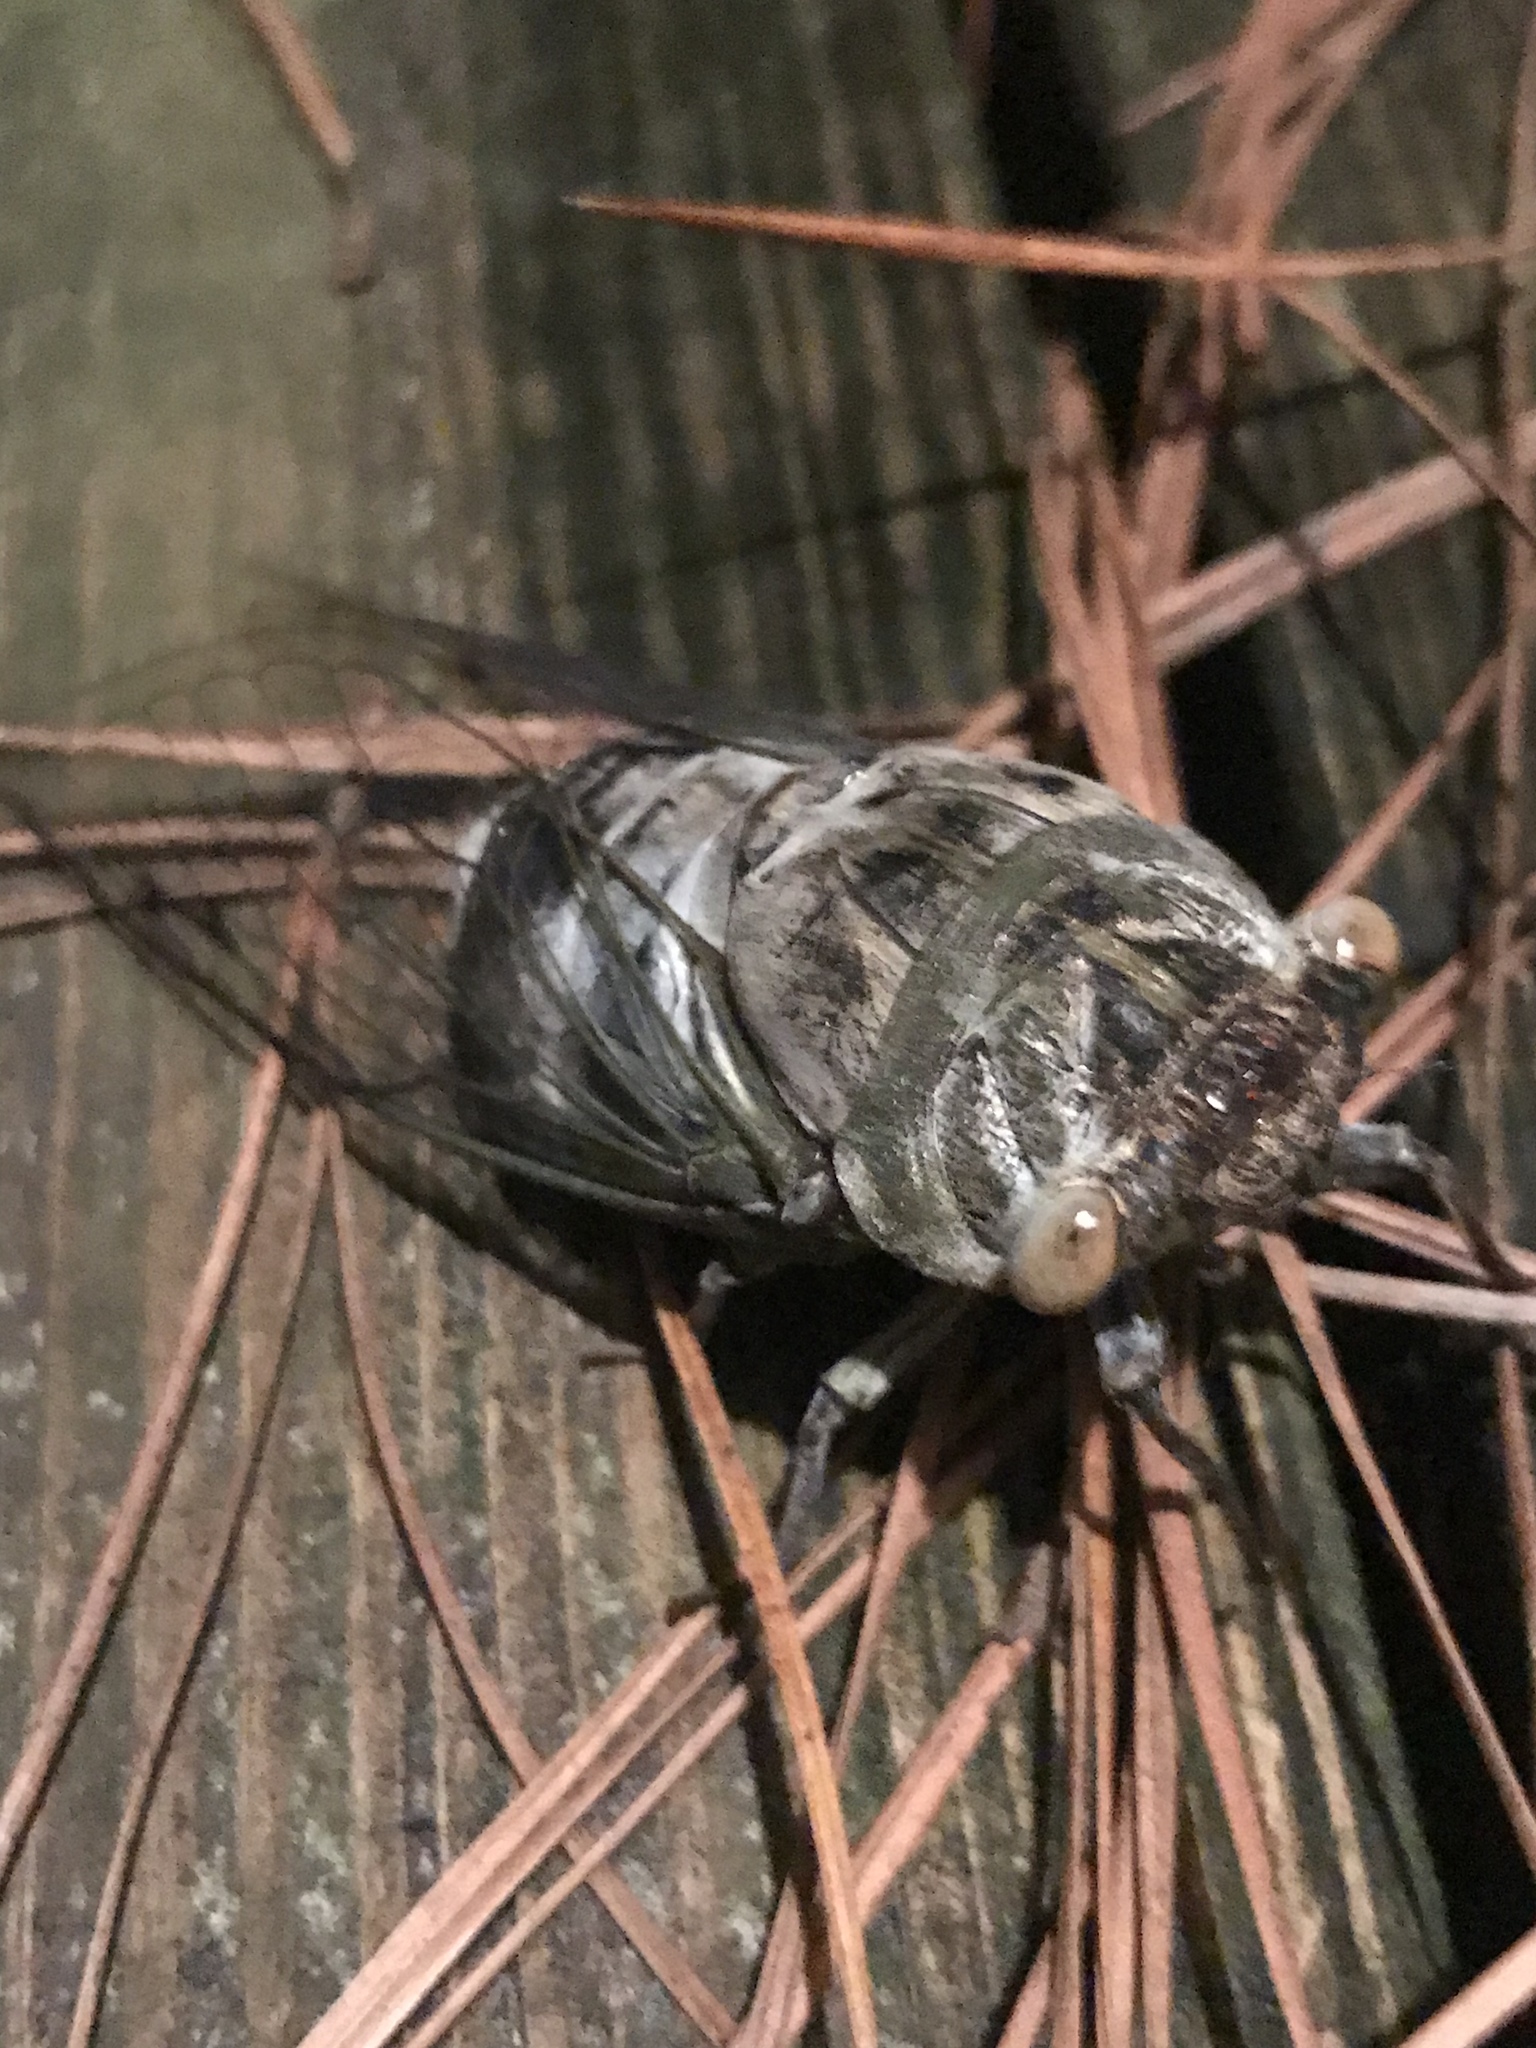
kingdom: Animalia
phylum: Arthropoda
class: Insecta
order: Hemiptera
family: Cicadidae
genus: Diceroprocta
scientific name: Diceroprocta grossa
